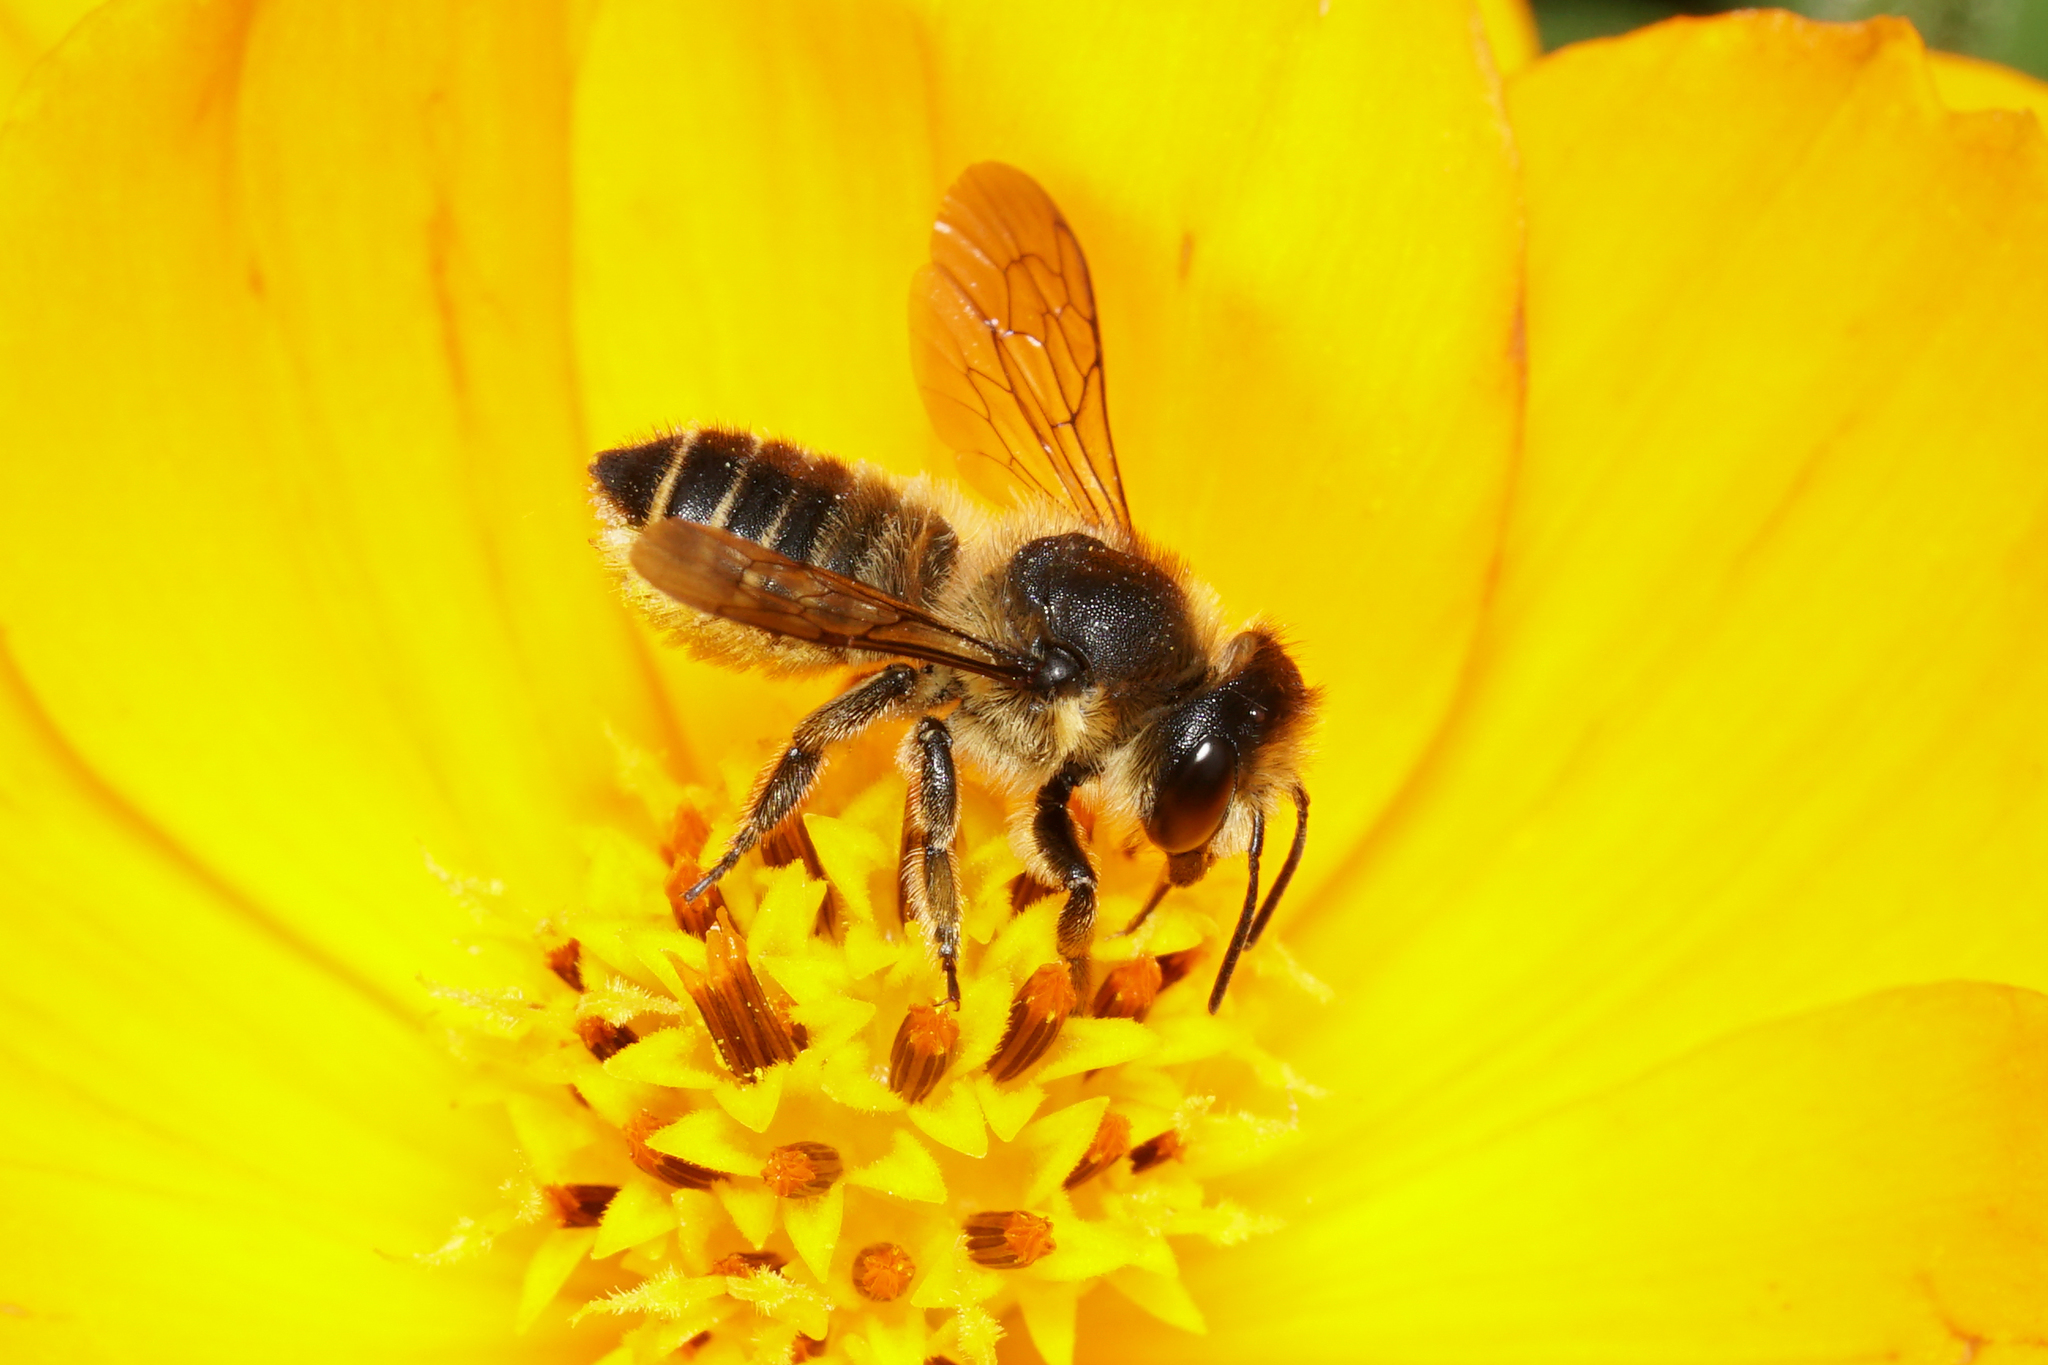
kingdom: Animalia
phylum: Arthropoda
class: Insecta
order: Hymenoptera
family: Megachilidae
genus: Megachile
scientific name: Megachile centuncularis
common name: Patchwork leafcutter bee
